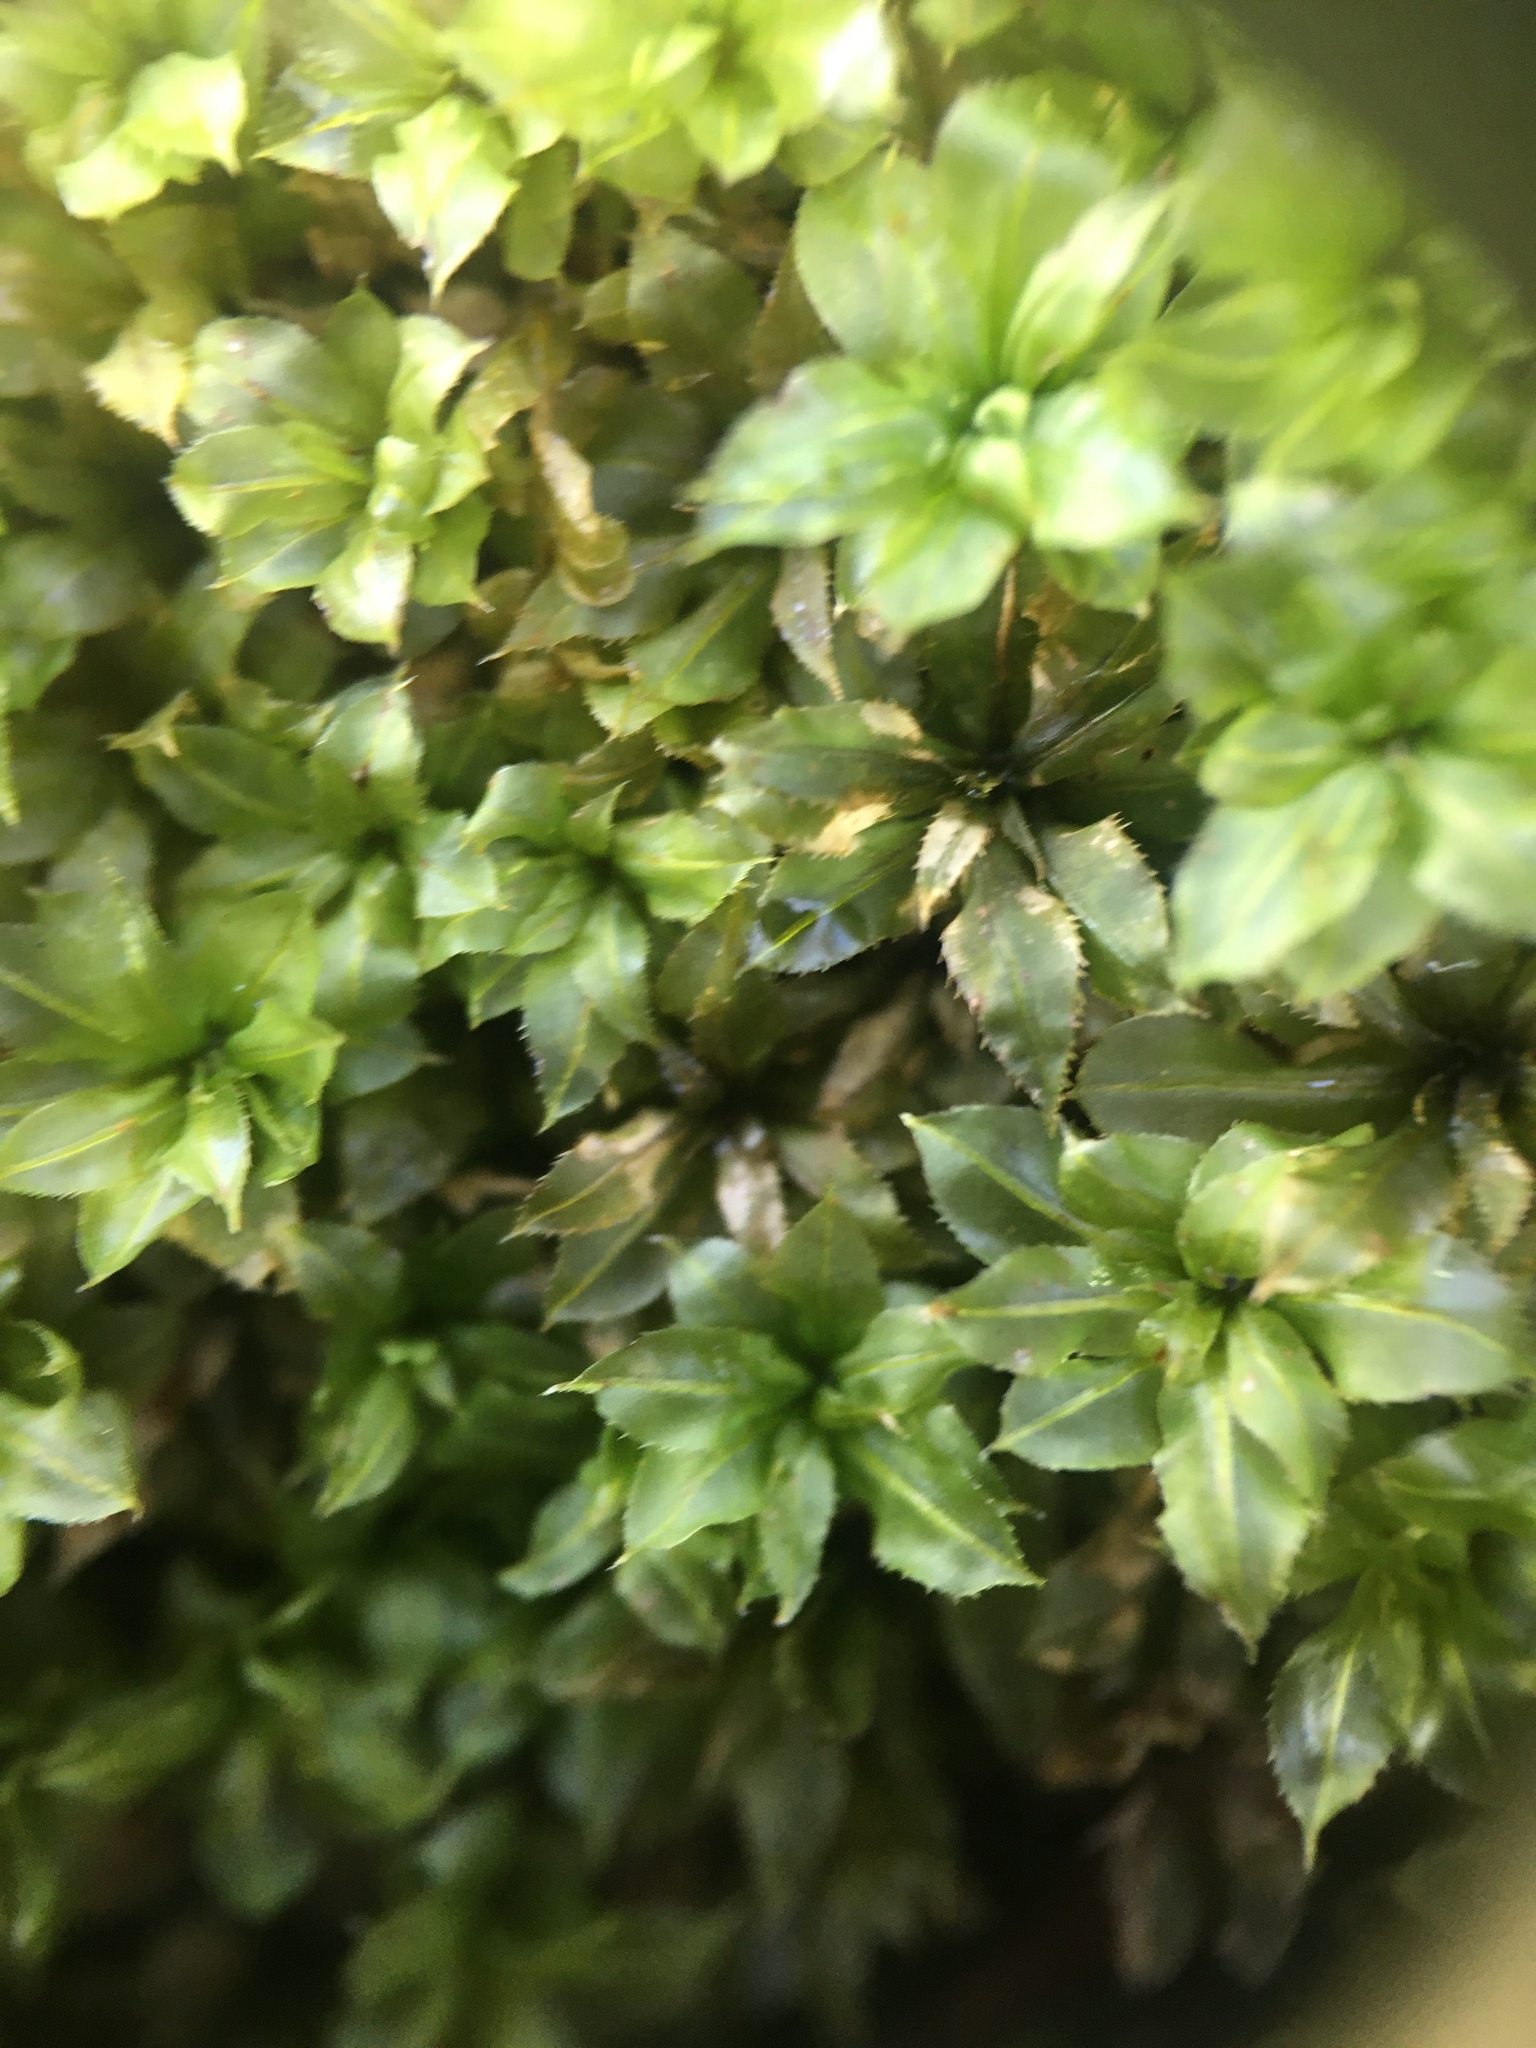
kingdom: Plantae
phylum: Bryophyta
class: Bryopsida
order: Bryales
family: Mniaceae
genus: Plagiomnium
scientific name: Plagiomnium cuspidatum
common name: Woodsy leafy moss
